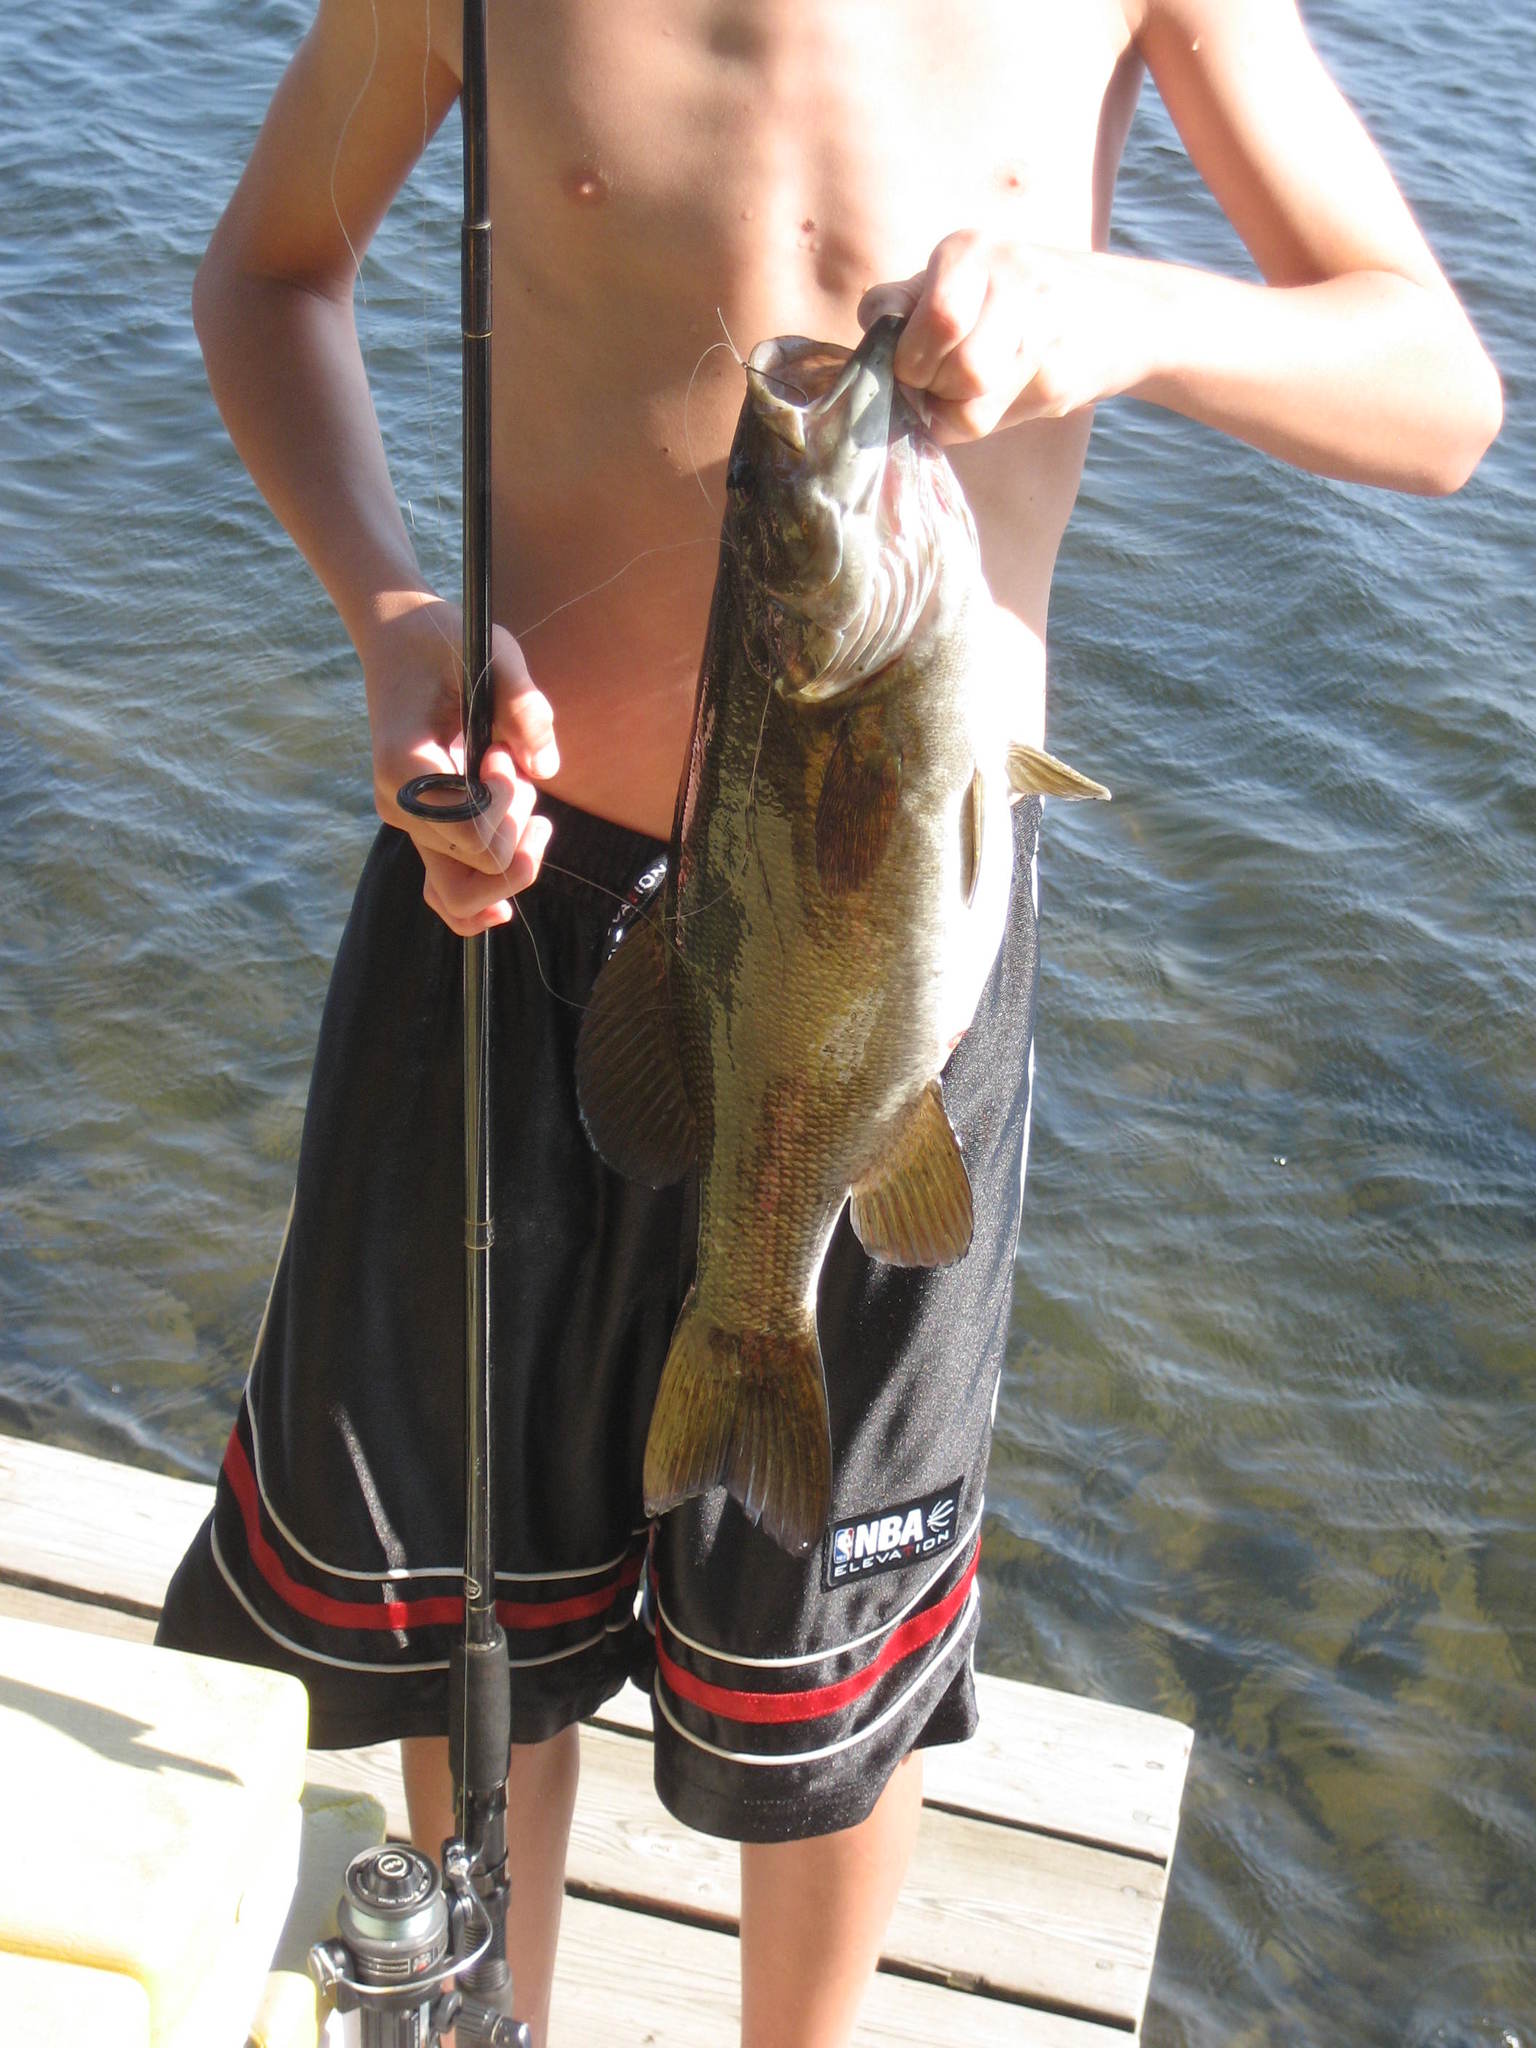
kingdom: Animalia
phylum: Chordata
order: Perciformes
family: Centrarchidae
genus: Micropterus
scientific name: Micropterus dolomieu
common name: Smallmouth bass
